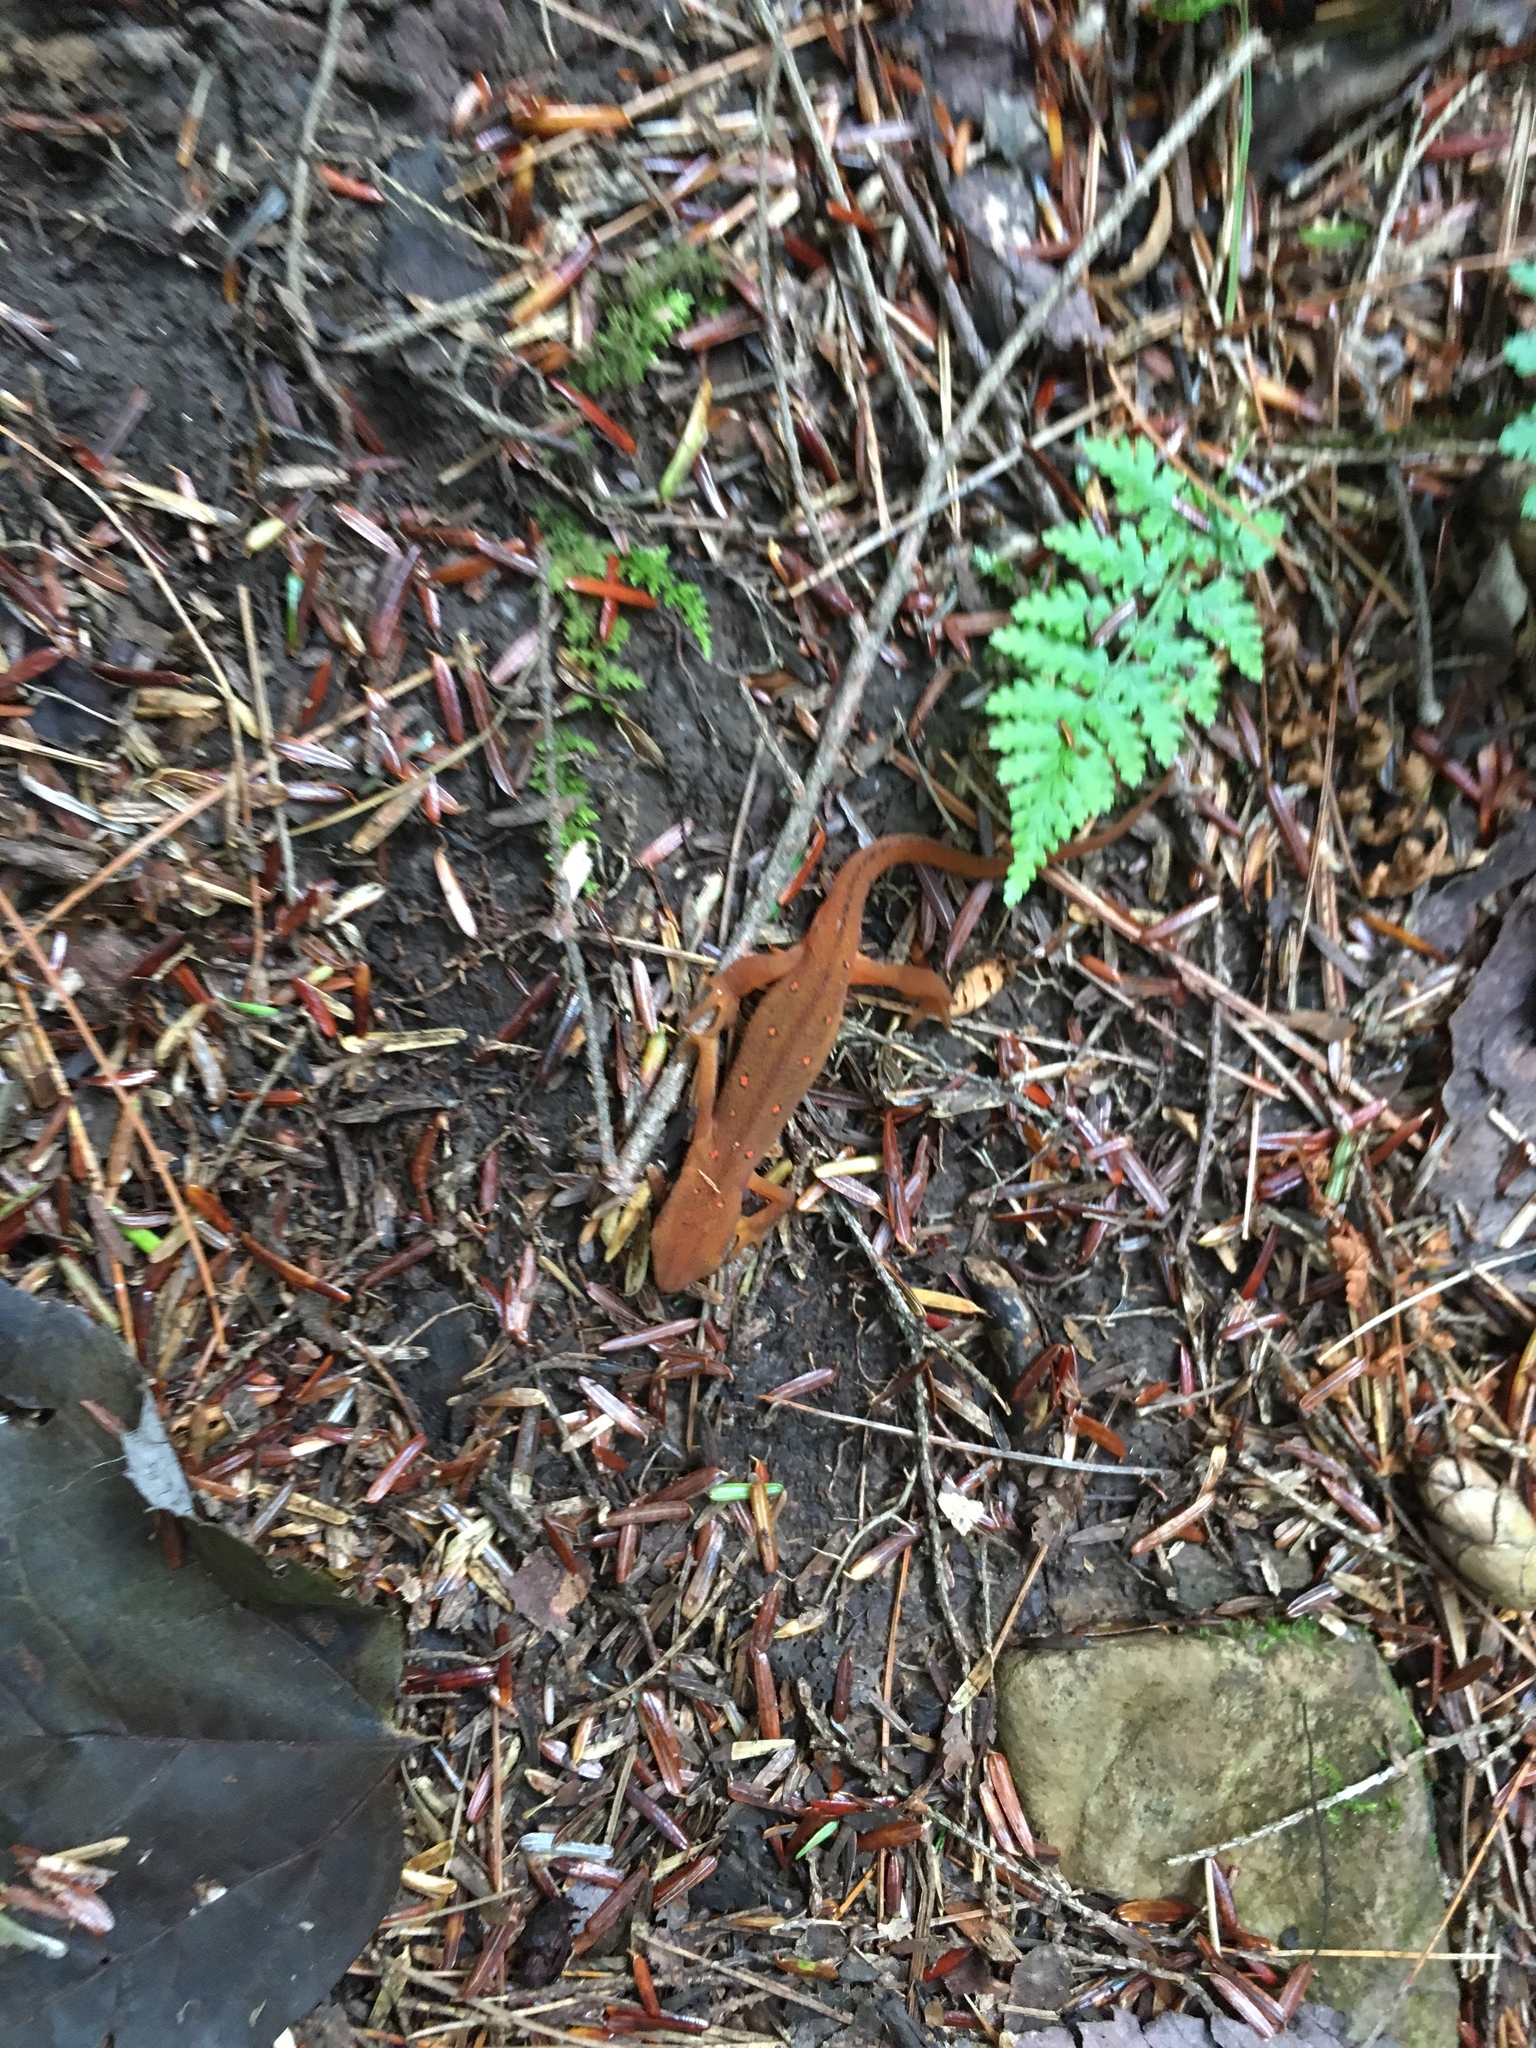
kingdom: Animalia
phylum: Chordata
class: Amphibia
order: Caudata
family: Salamandridae
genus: Notophthalmus
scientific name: Notophthalmus viridescens
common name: Eastern newt
